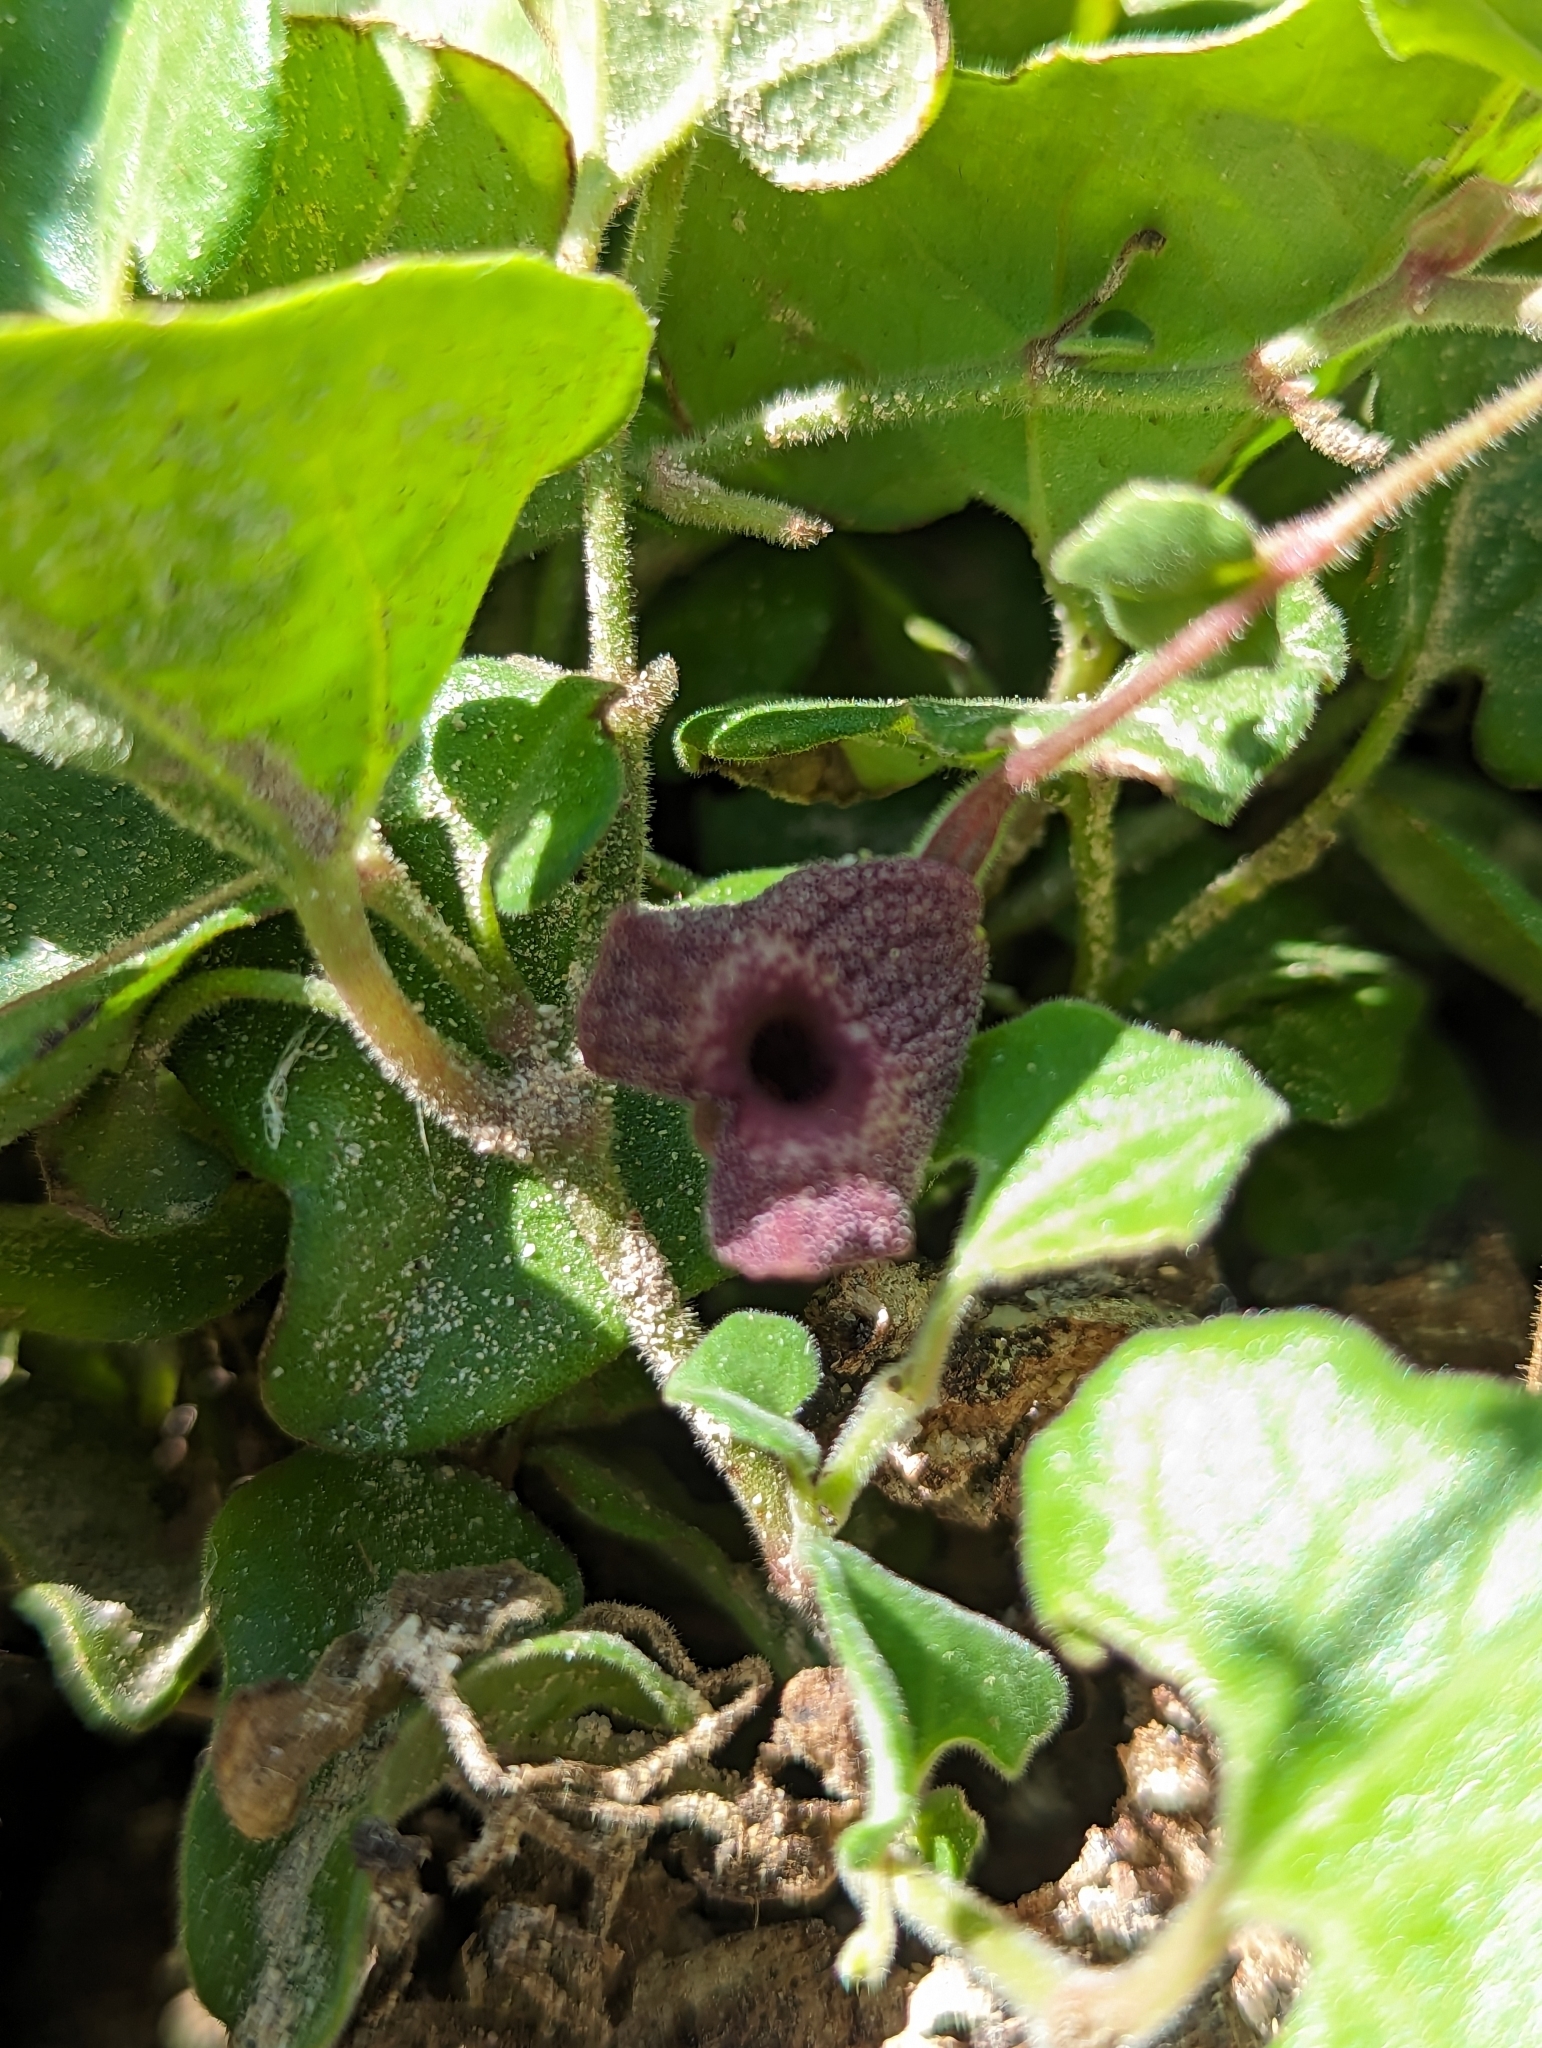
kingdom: Plantae
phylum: Tracheophyta
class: Magnoliopsida
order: Piperales
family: Aristolochiaceae
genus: Aristolochia
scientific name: Aristolochia monticola
